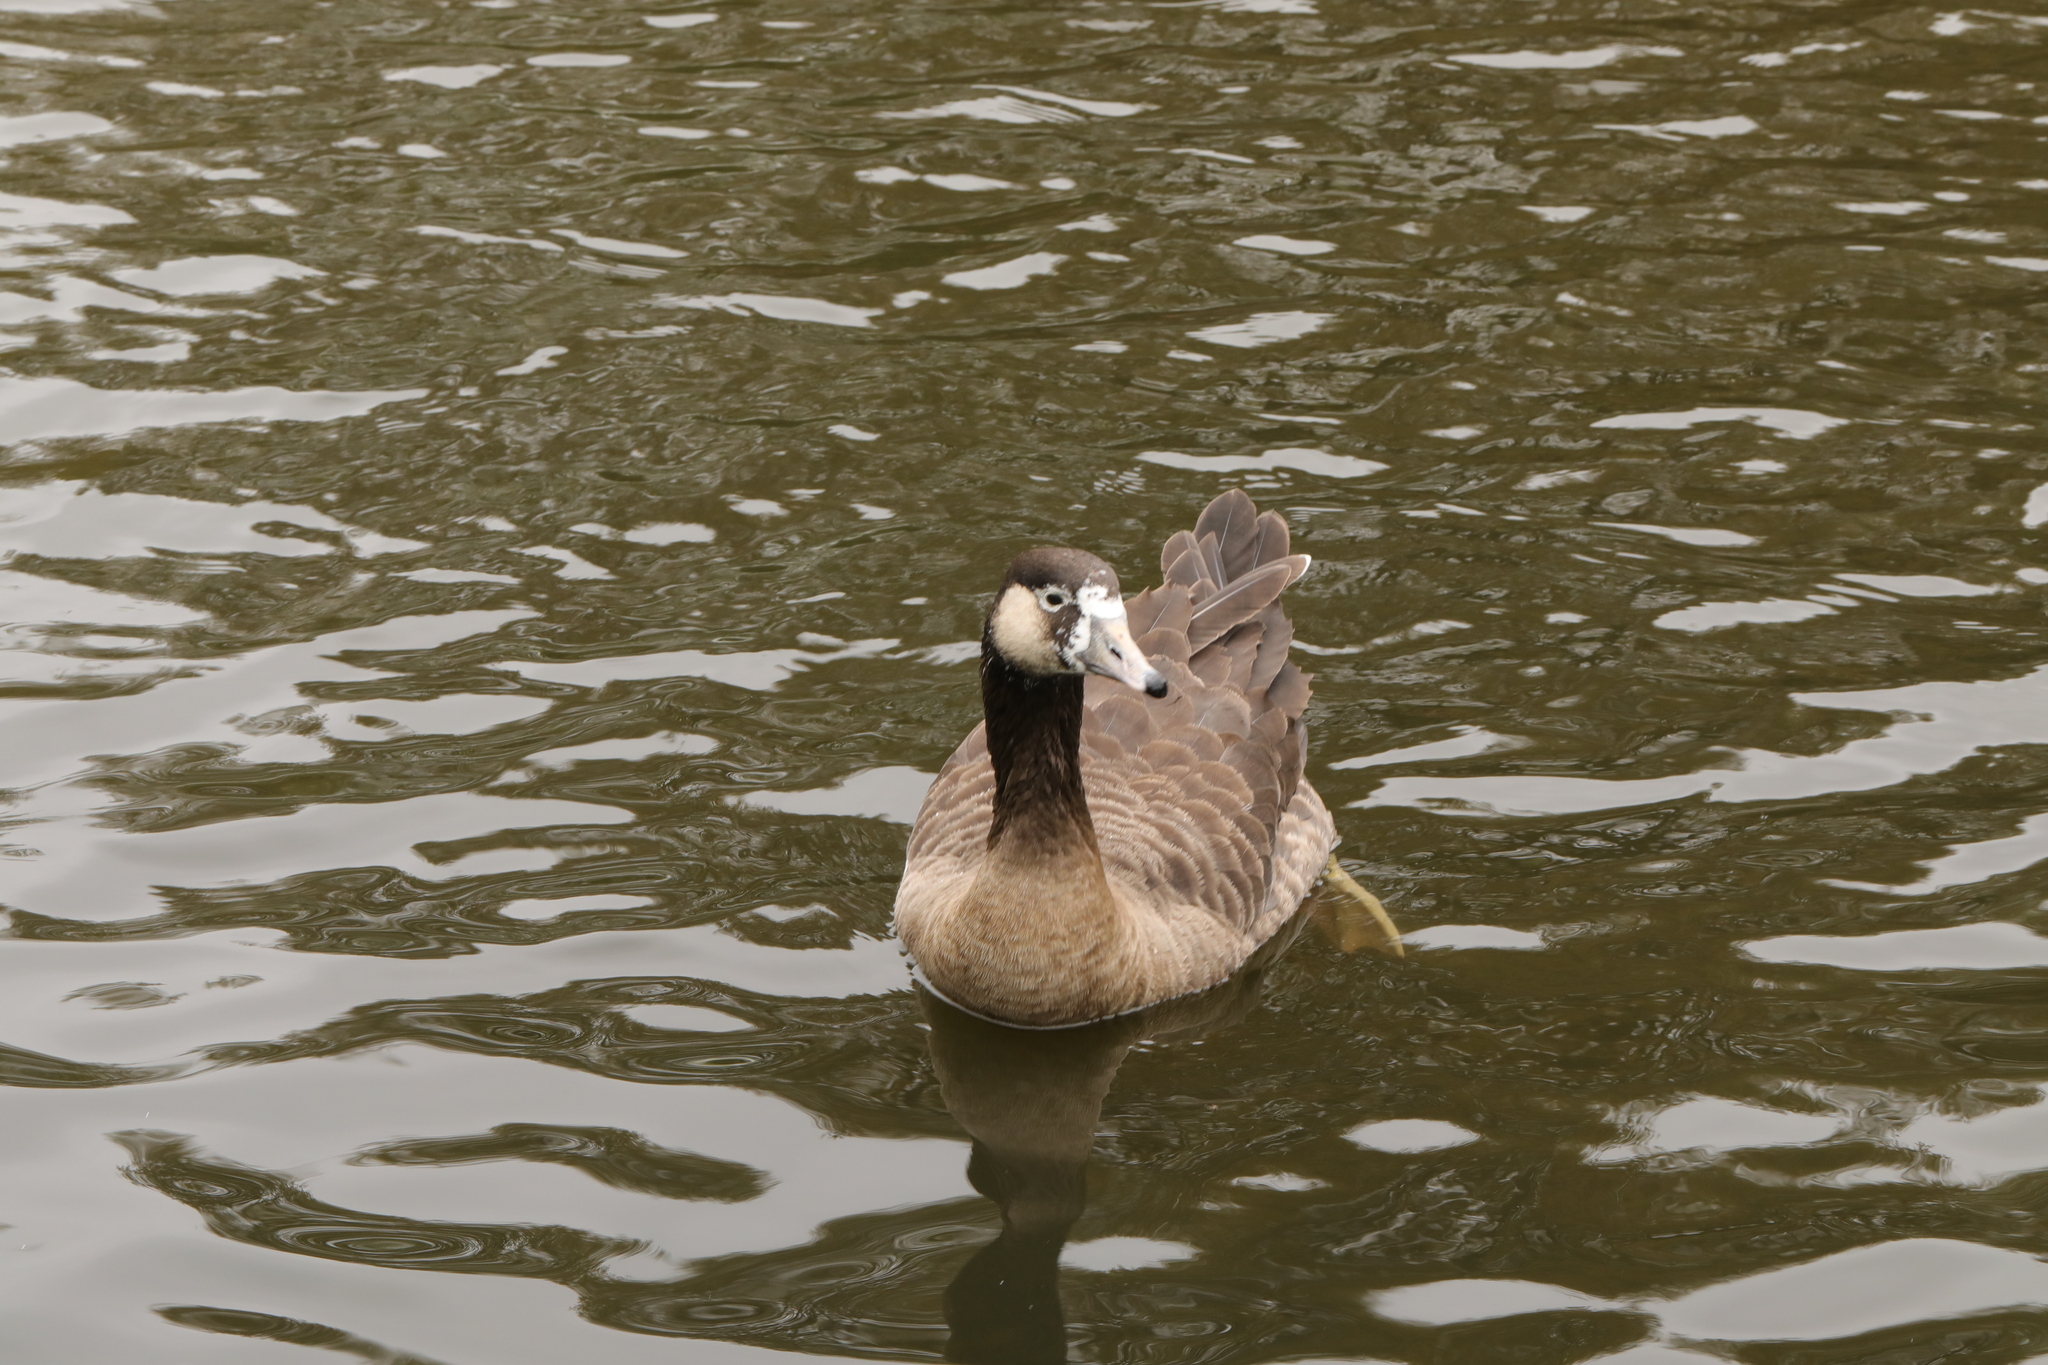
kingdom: Animalia
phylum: Chordata
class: Aves
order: Anseriformes
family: Anatidae
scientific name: Anatidae
